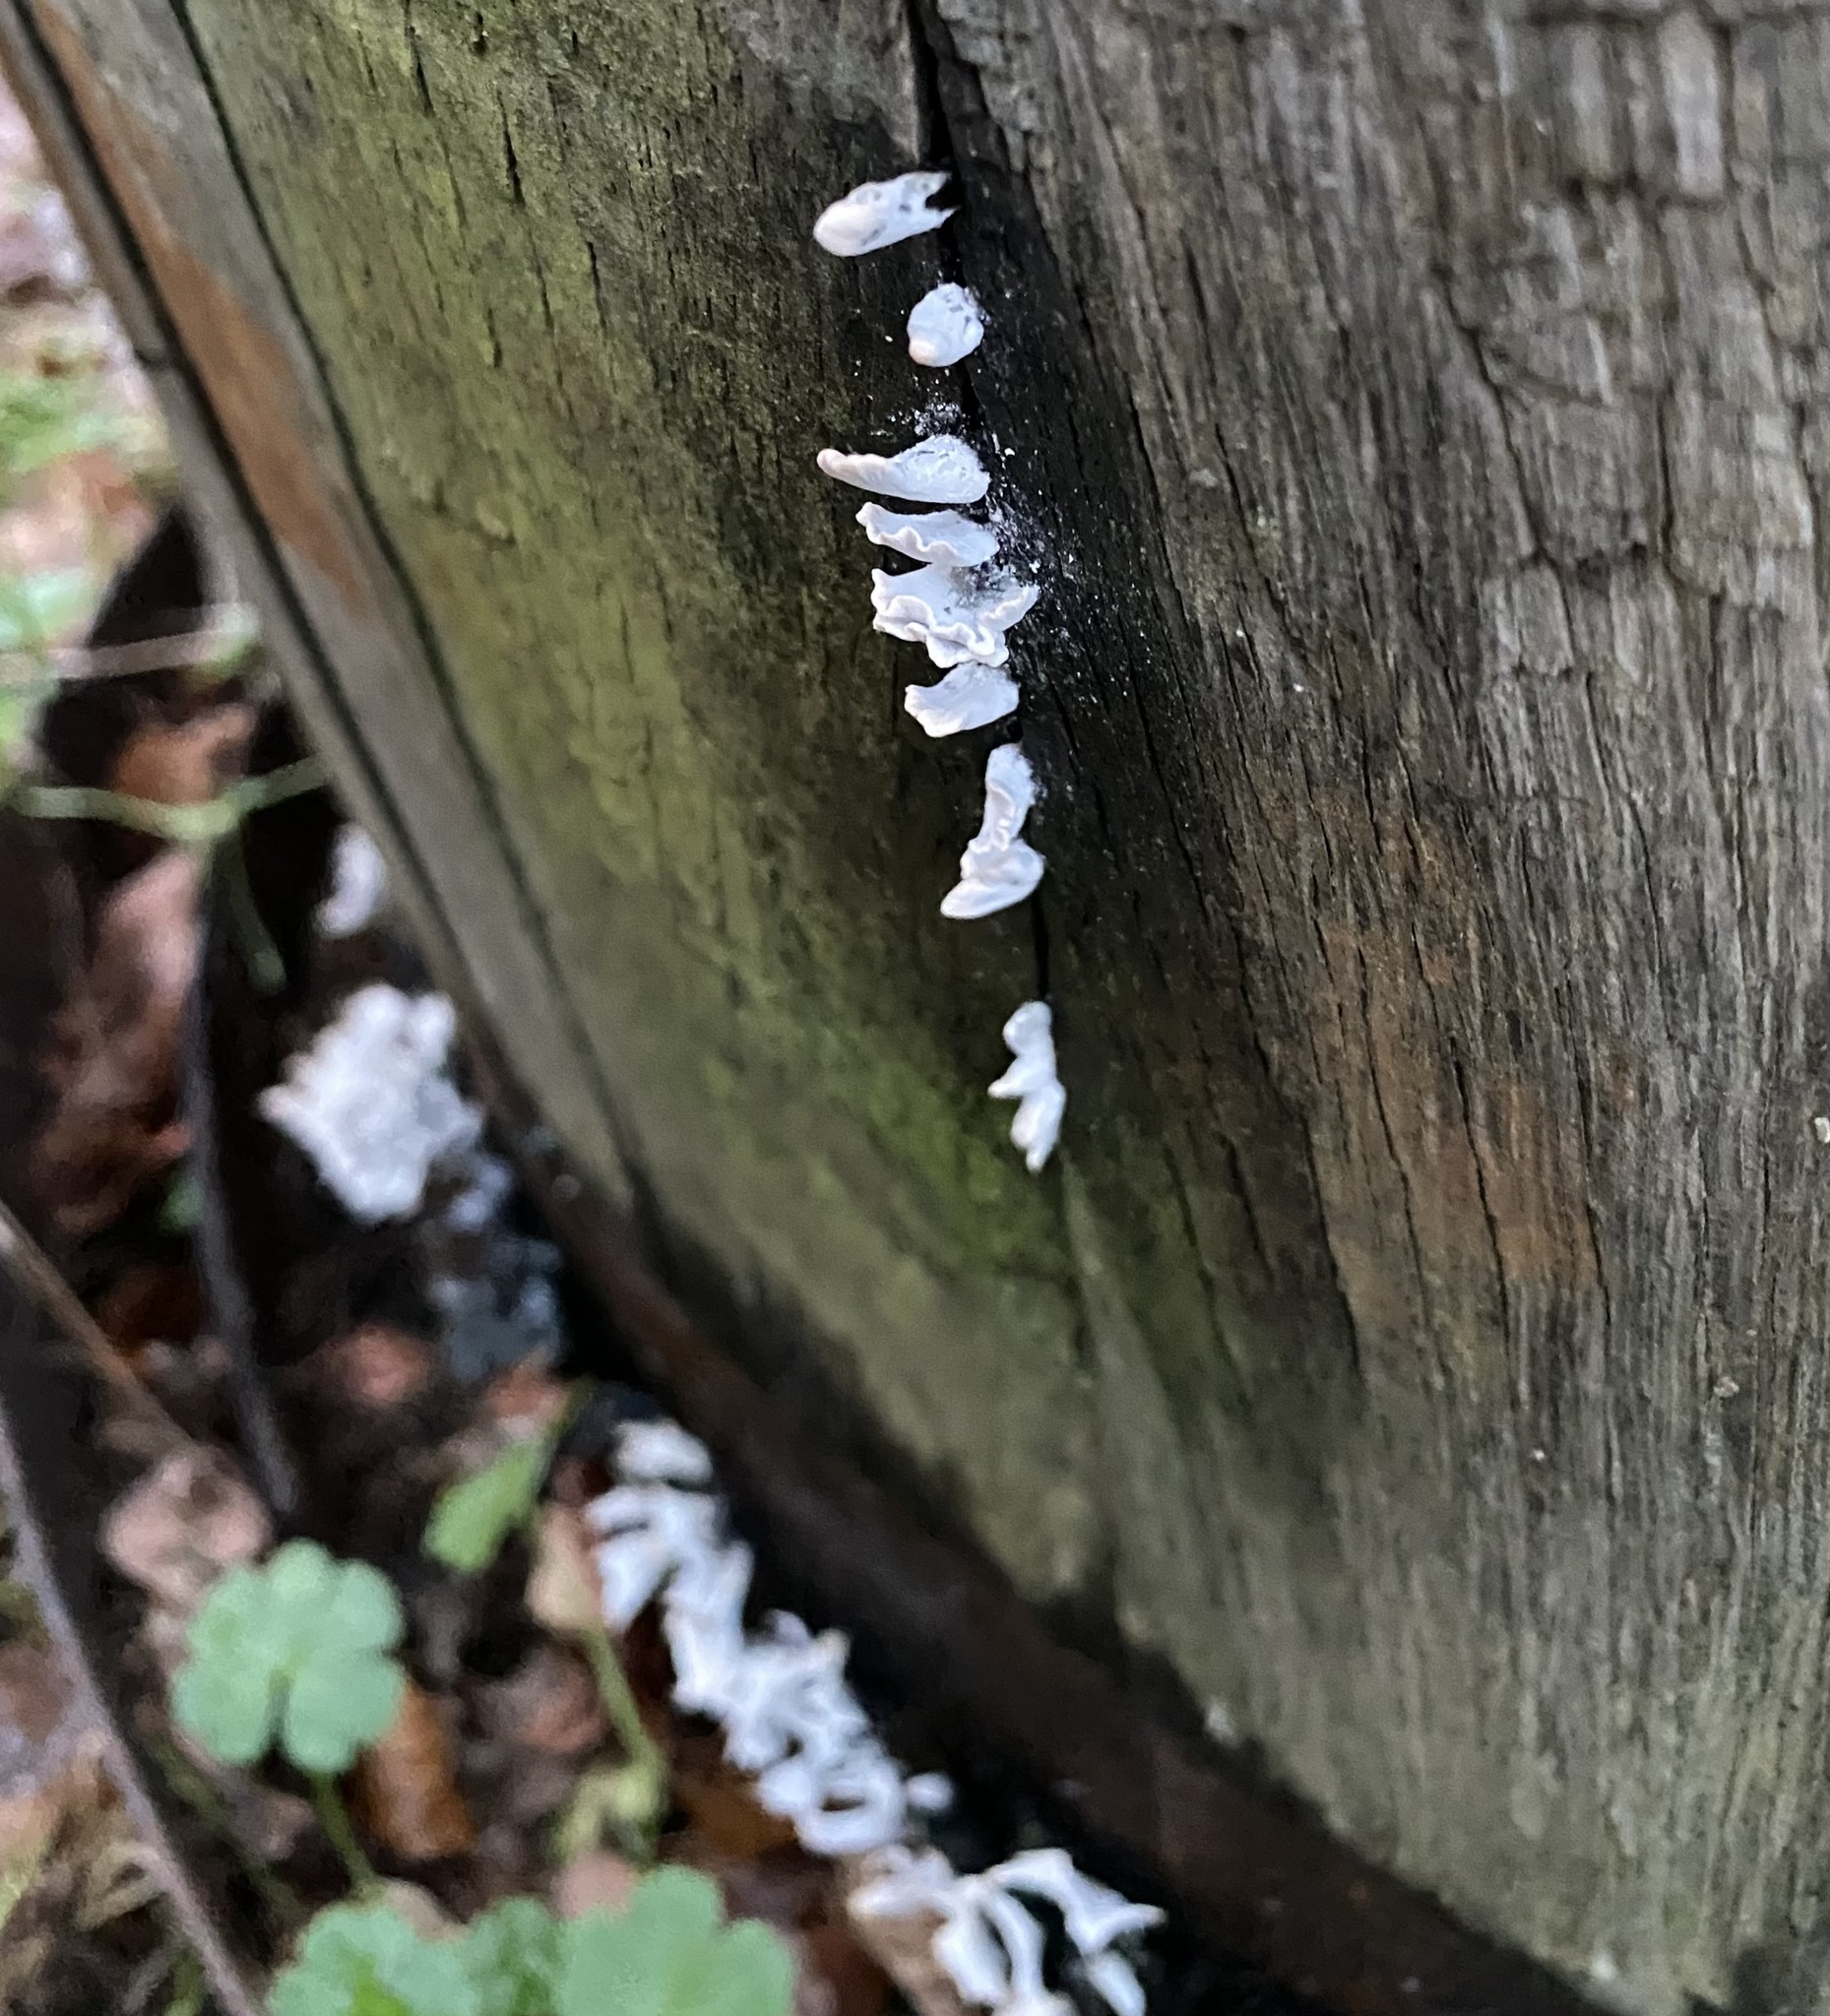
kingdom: Fungi
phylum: Ascomycota
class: Sordariomycetes
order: Xylariales
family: Xylariaceae
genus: Xylaria
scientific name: Xylaria hypoxylon
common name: Candle-snuff fungus
